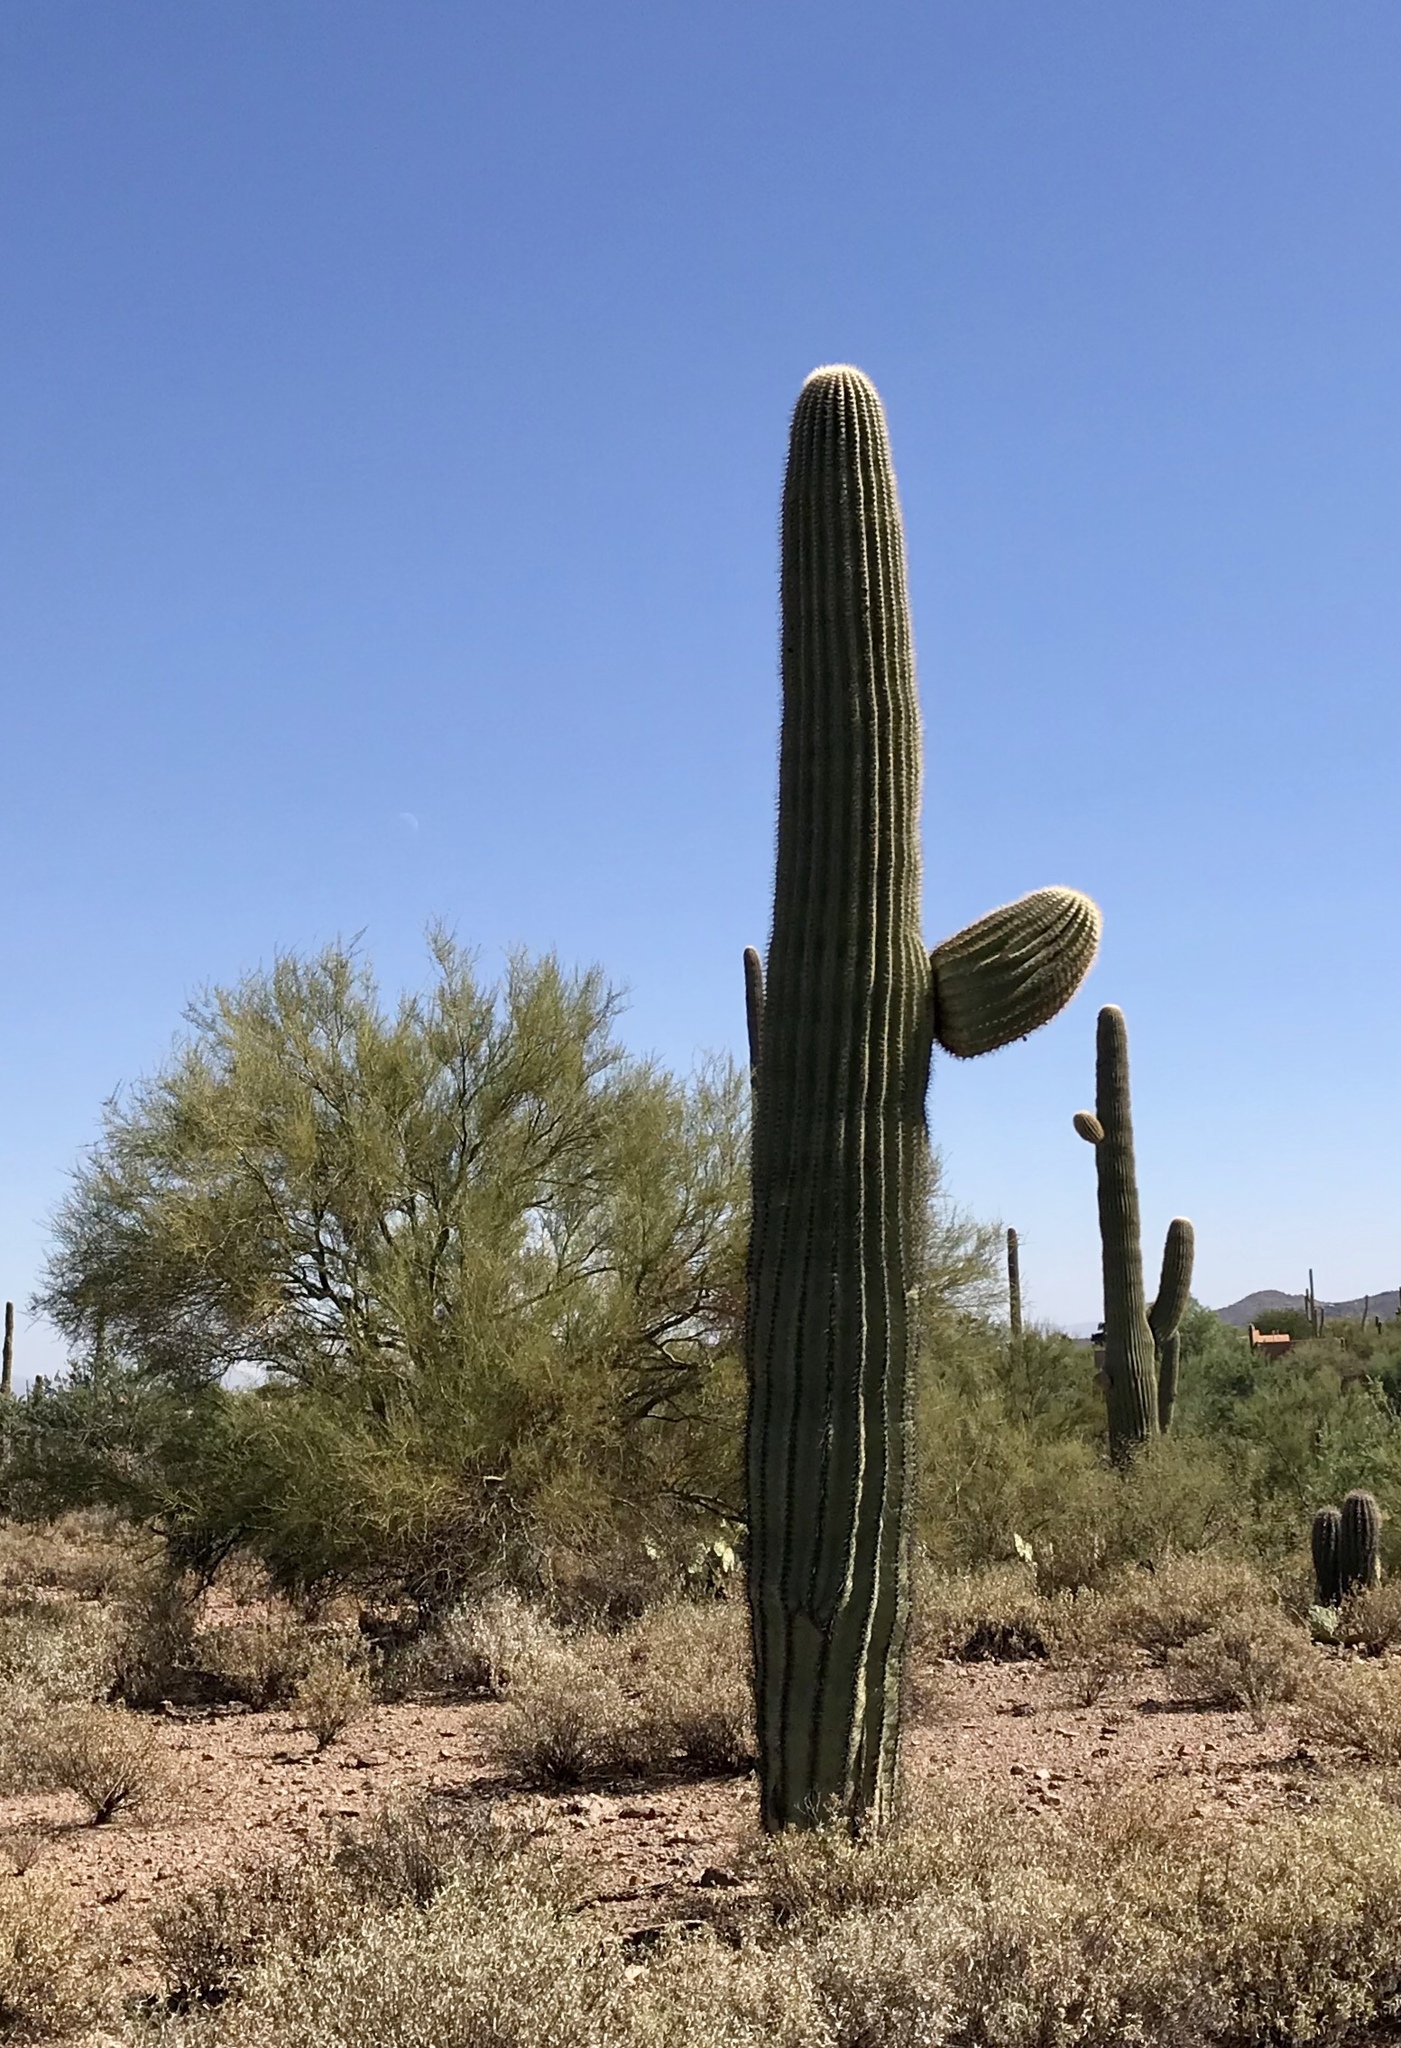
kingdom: Plantae
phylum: Tracheophyta
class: Magnoliopsida
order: Caryophyllales
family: Cactaceae
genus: Carnegiea
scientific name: Carnegiea gigantea
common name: Saguaro
